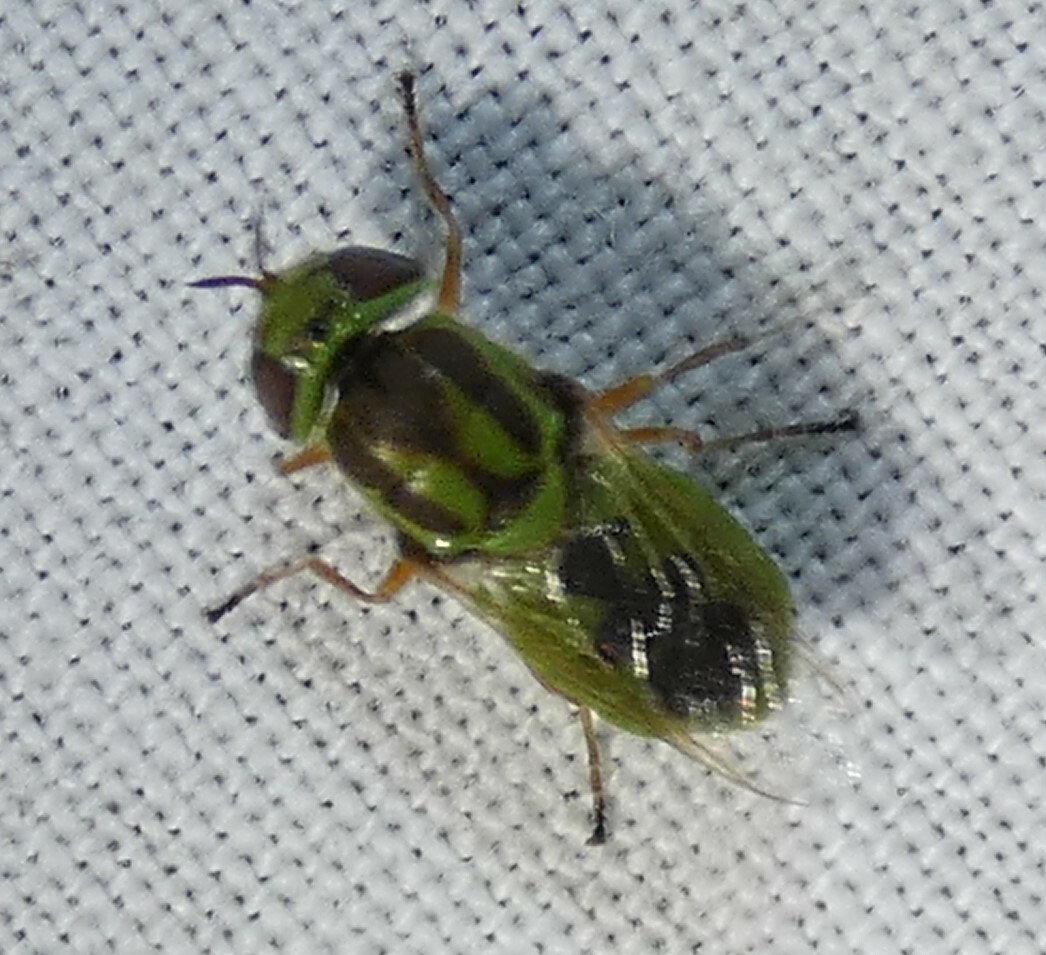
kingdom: Animalia
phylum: Arthropoda
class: Insecta
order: Diptera
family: Stratiomyidae
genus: Hedriodiscus
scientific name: Hedriodiscus trivittatus
